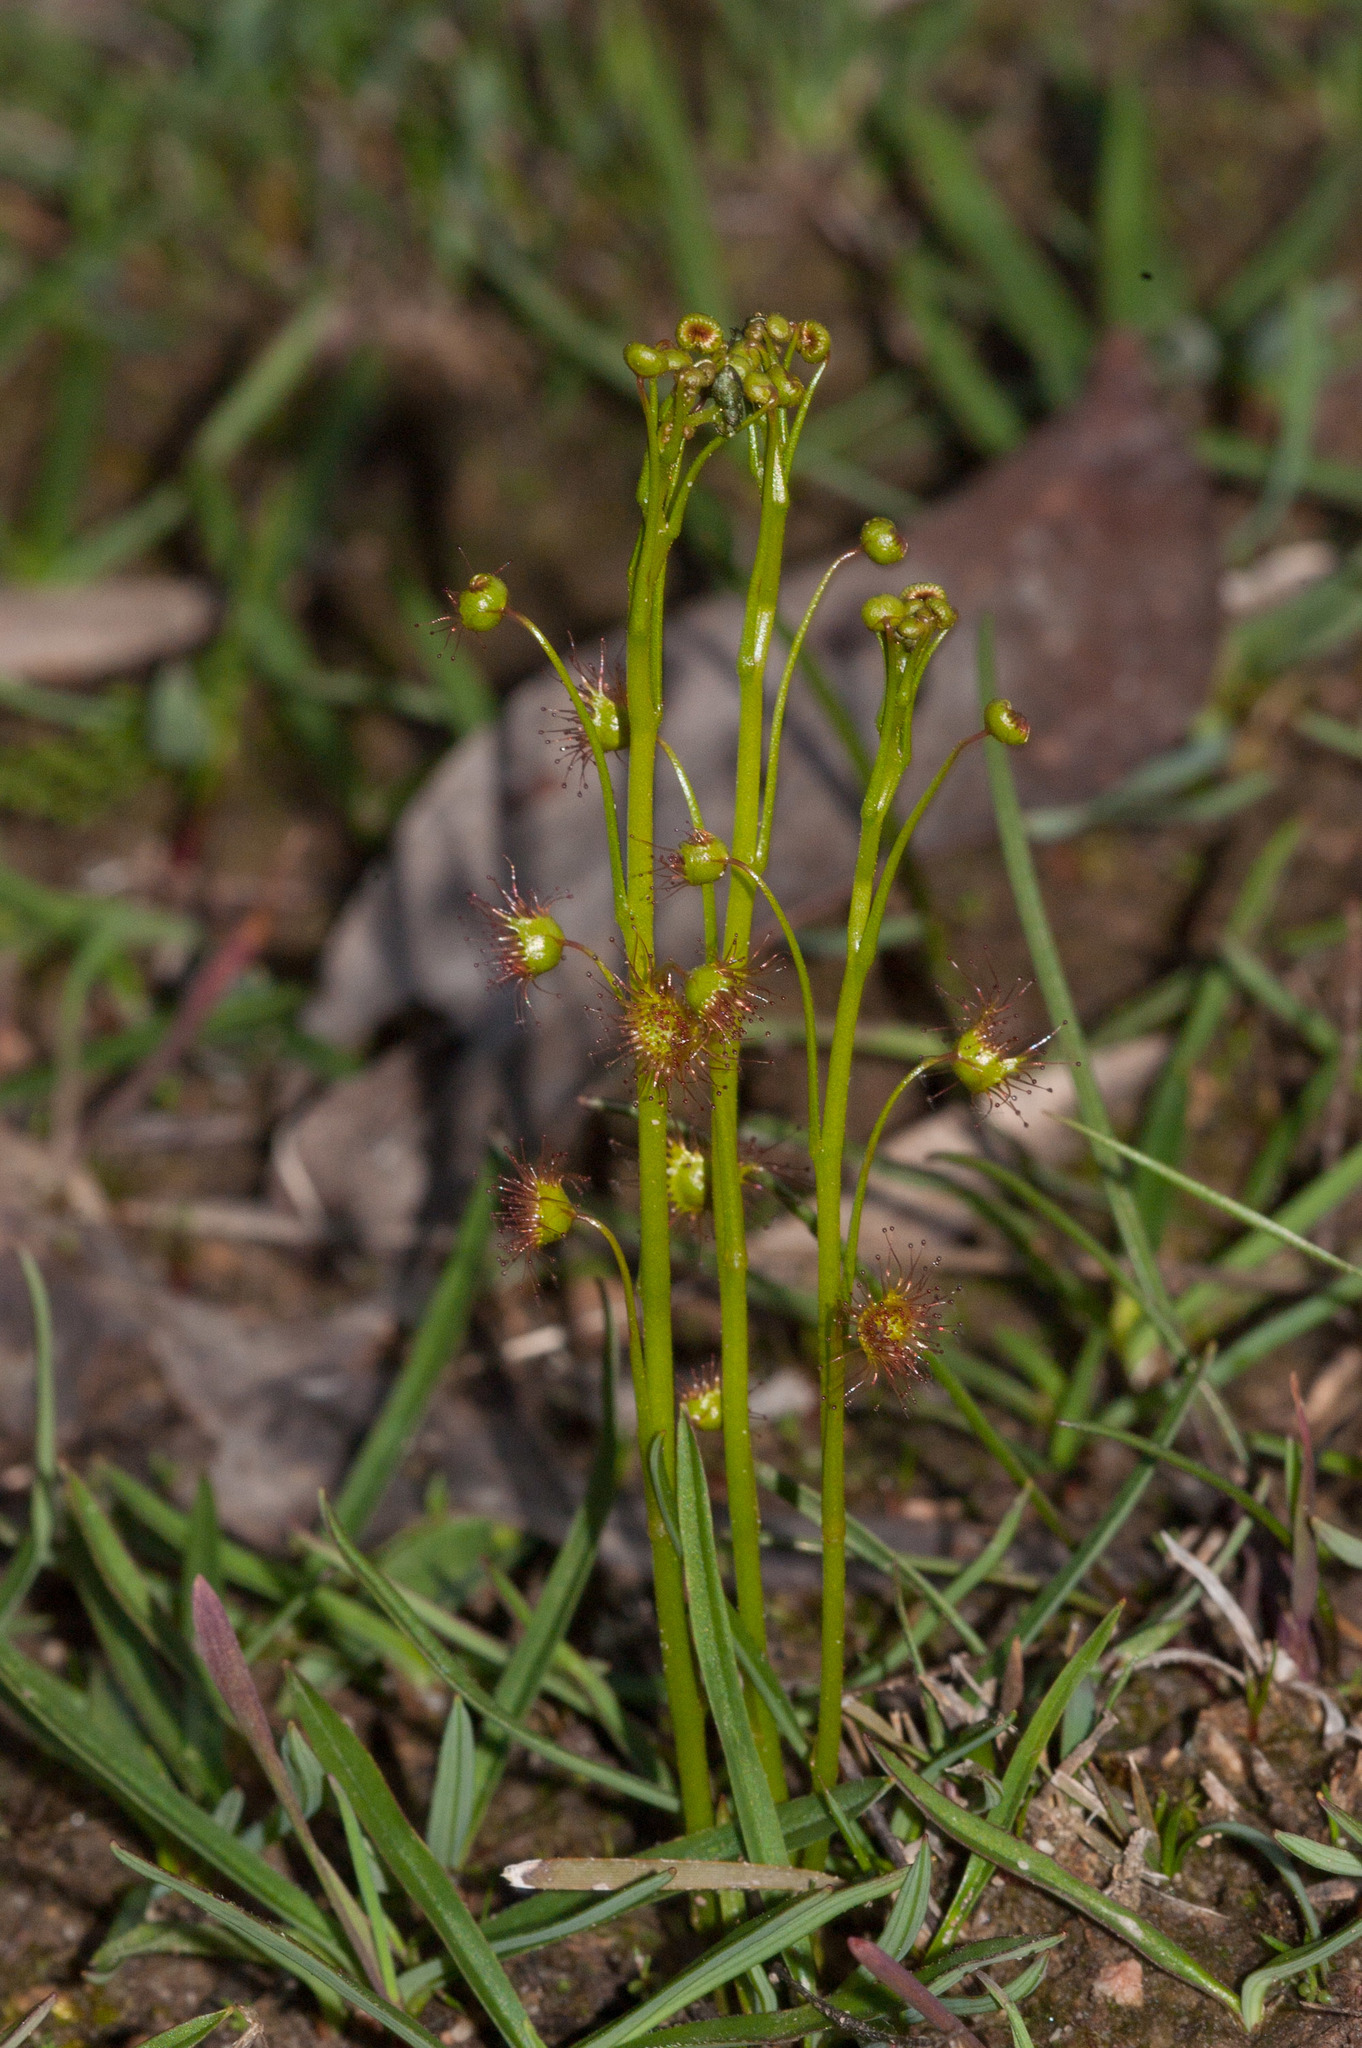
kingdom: Plantae
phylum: Tracheophyta
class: Magnoliopsida
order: Caryophyllales
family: Droseraceae
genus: Drosera
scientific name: Drosera peltata
